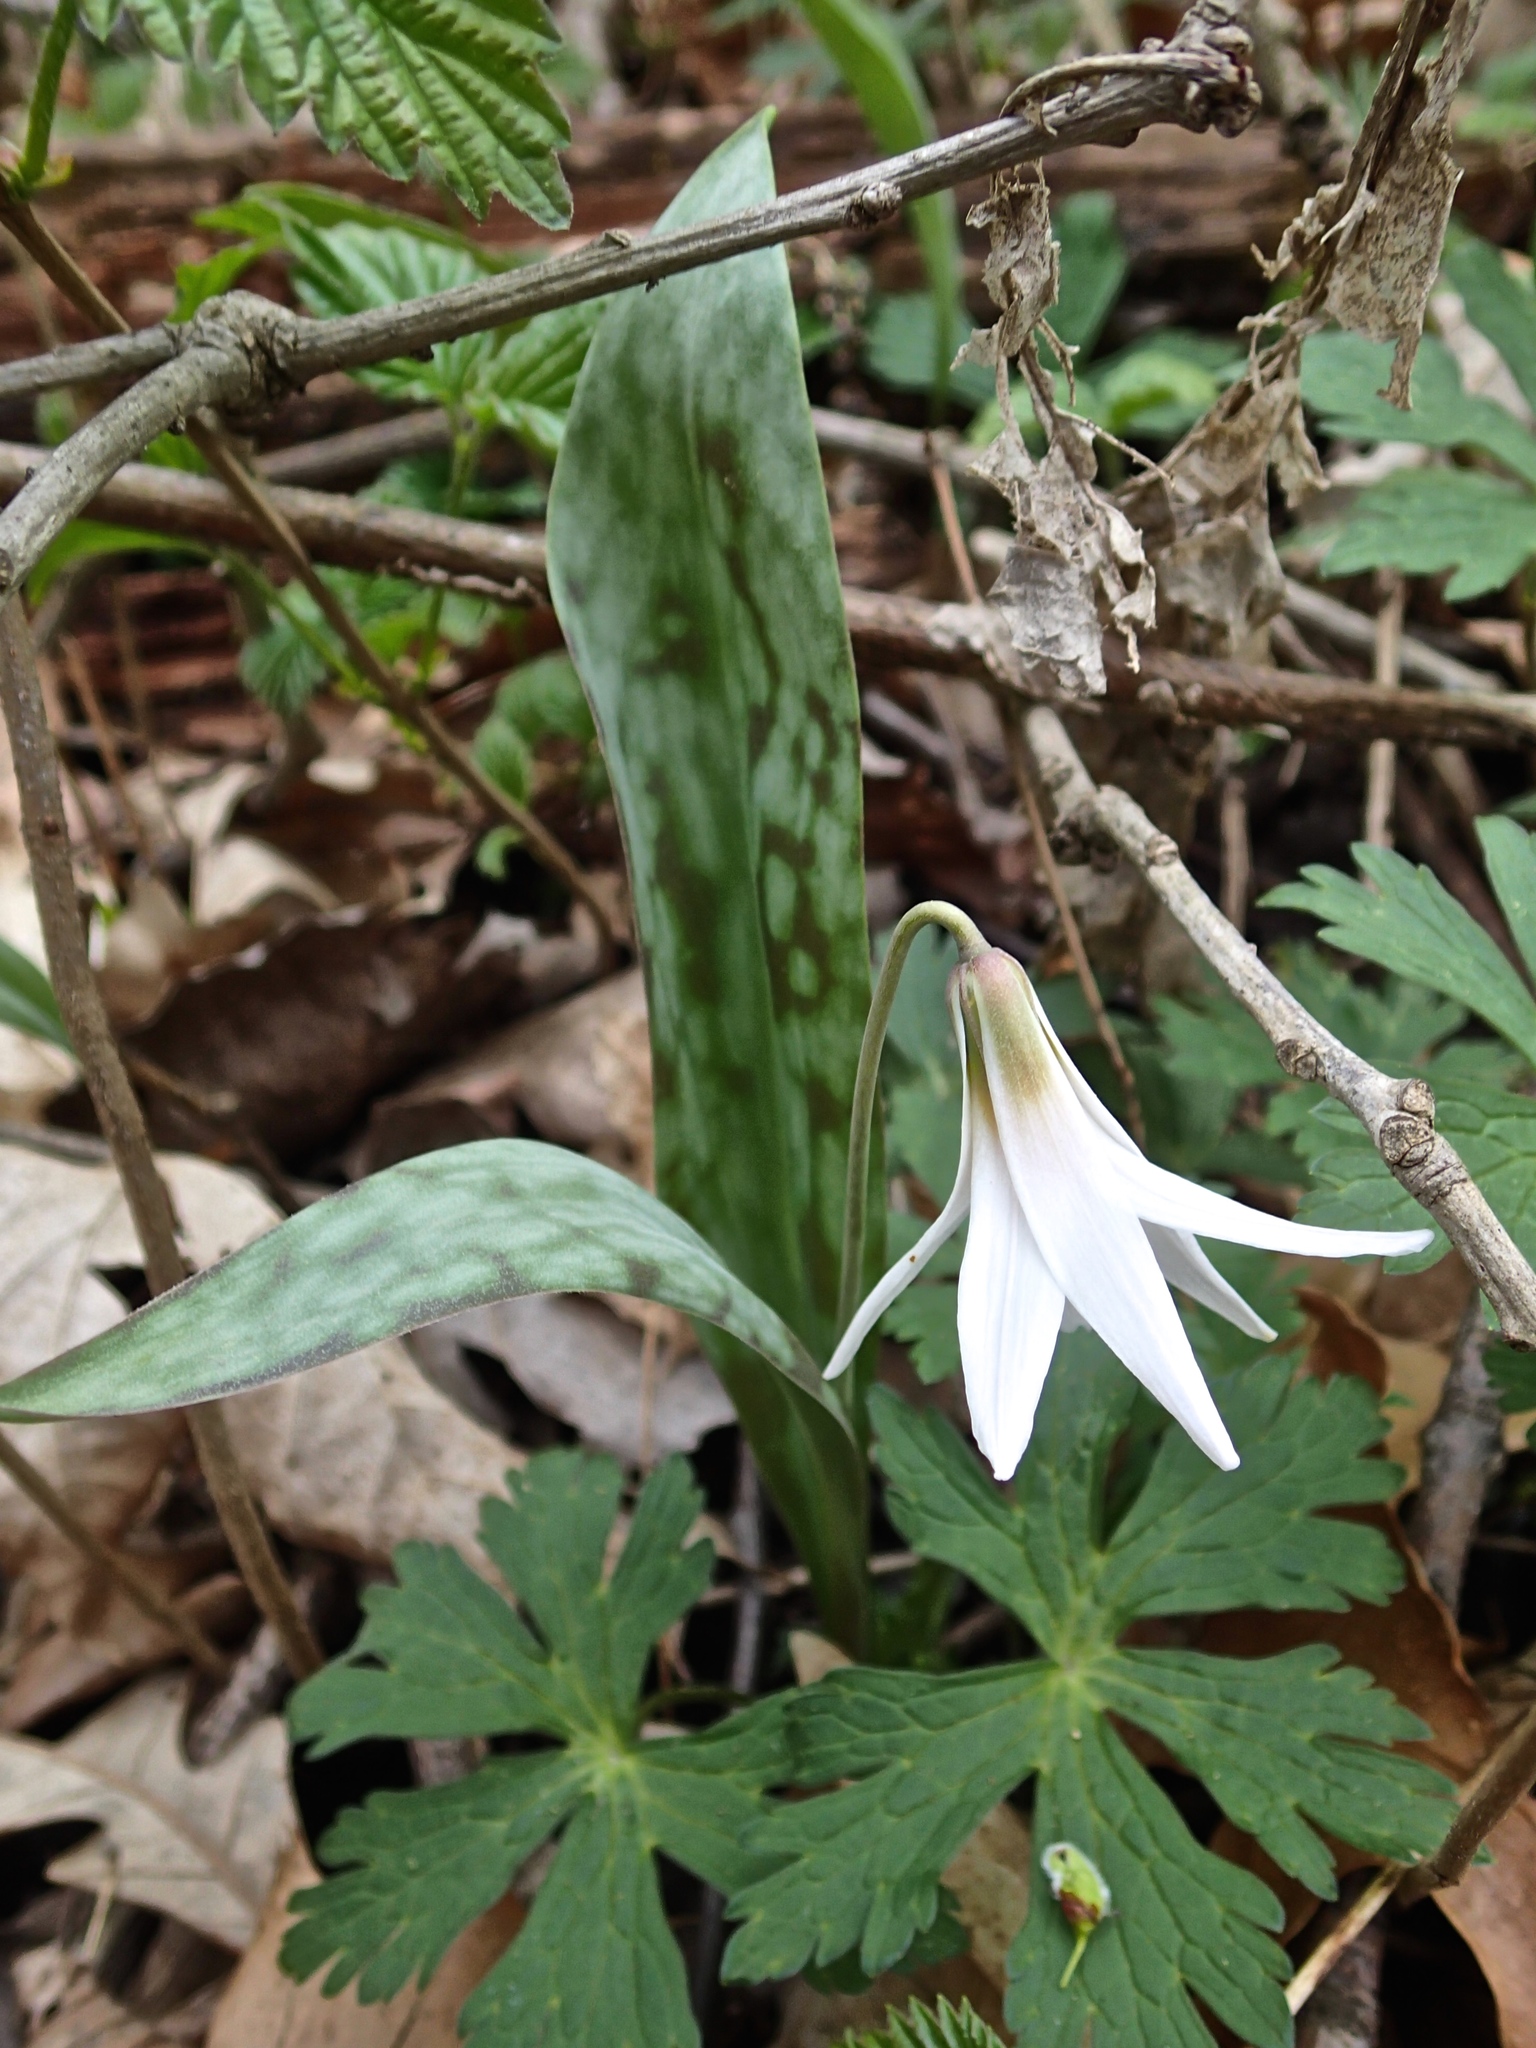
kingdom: Plantae
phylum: Tracheophyta
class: Liliopsida
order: Liliales
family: Liliaceae
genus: Erythronium
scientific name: Erythronium albidum
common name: White trout-lily
